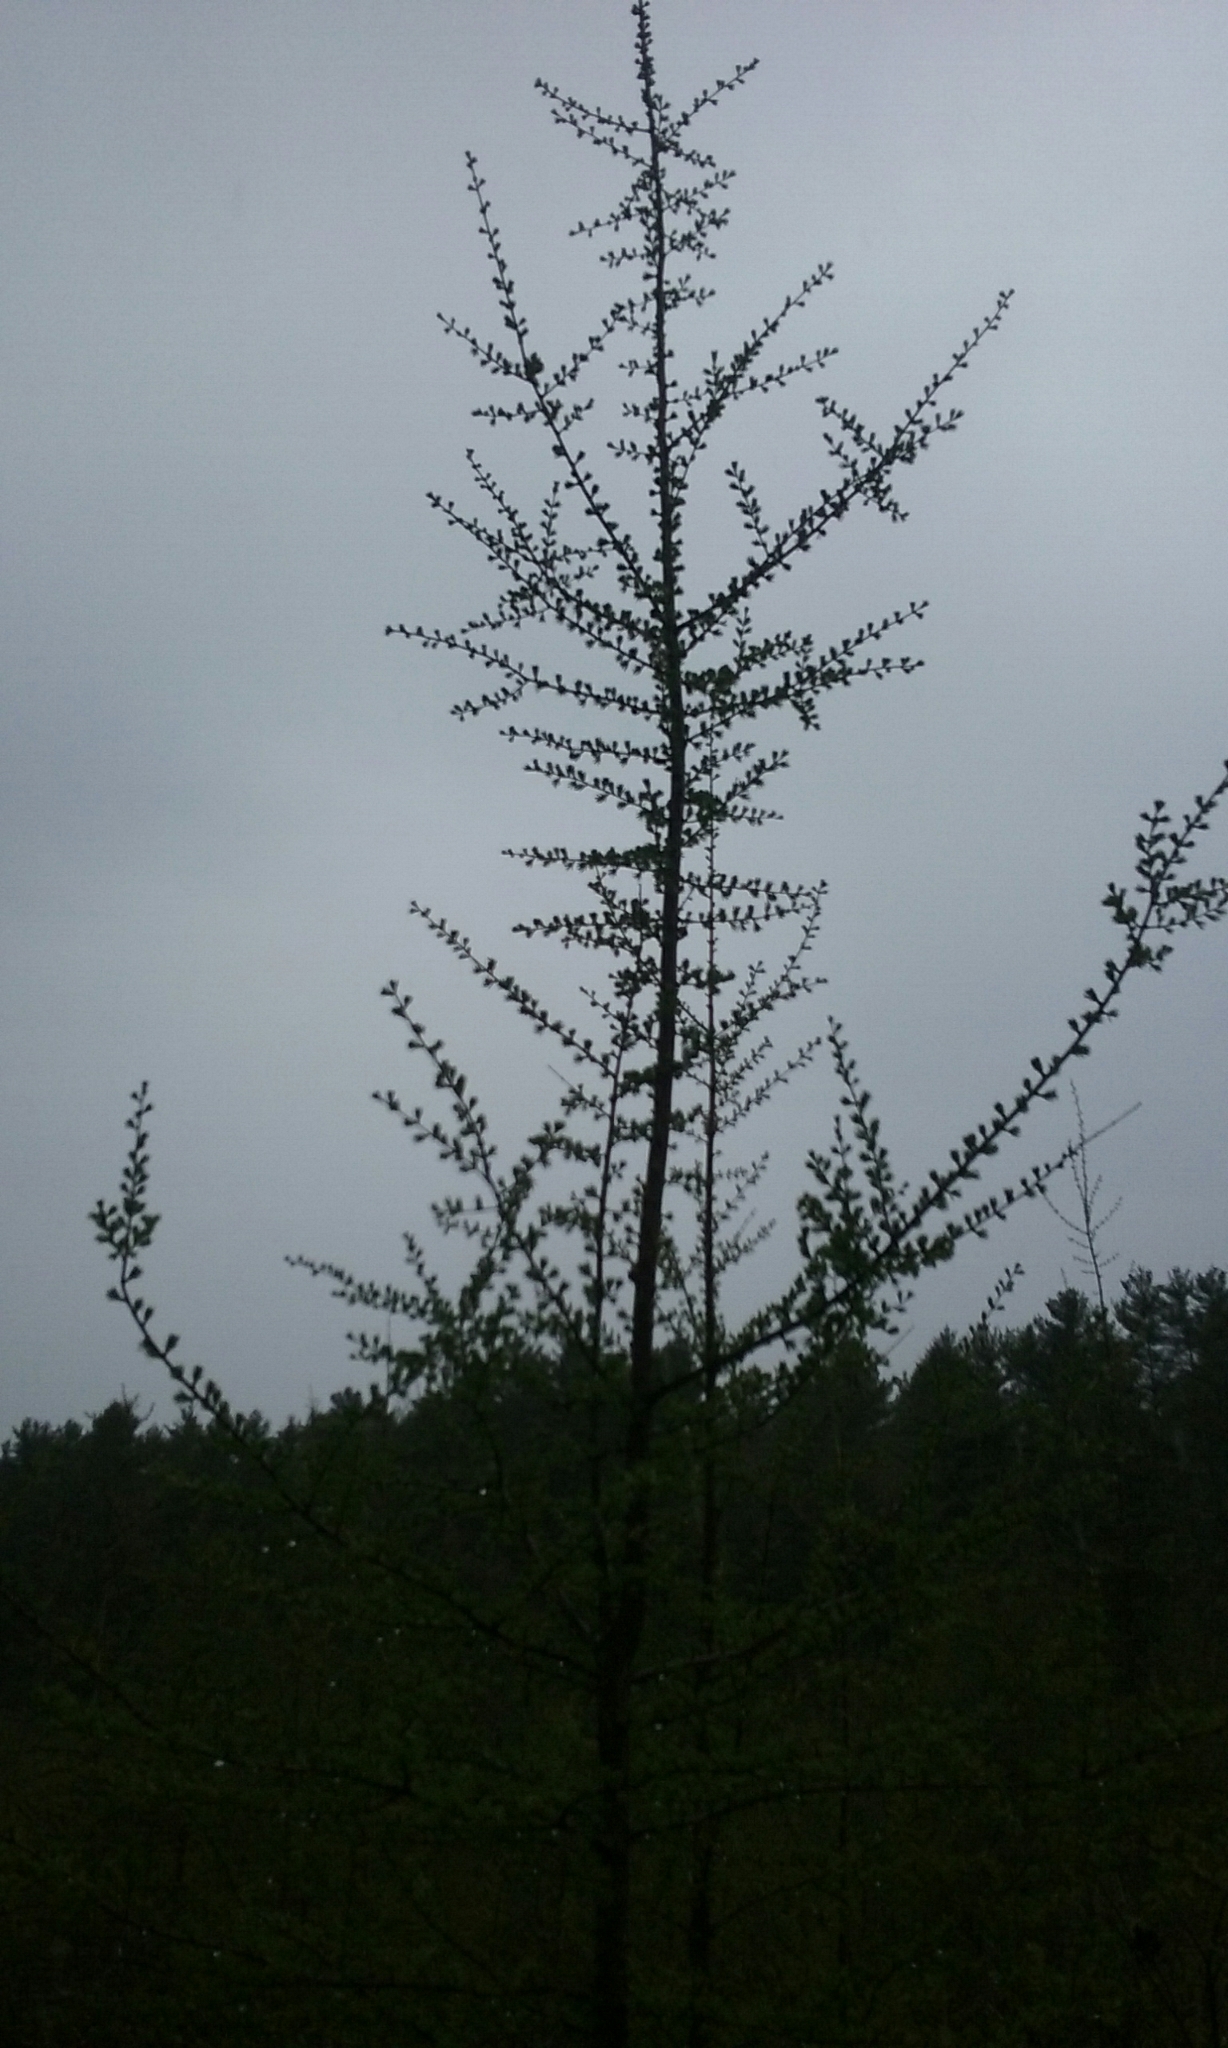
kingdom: Plantae
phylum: Tracheophyta
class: Pinopsida
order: Pinales
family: Pinaceae
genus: Larix
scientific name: Larix laricina
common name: American larch
